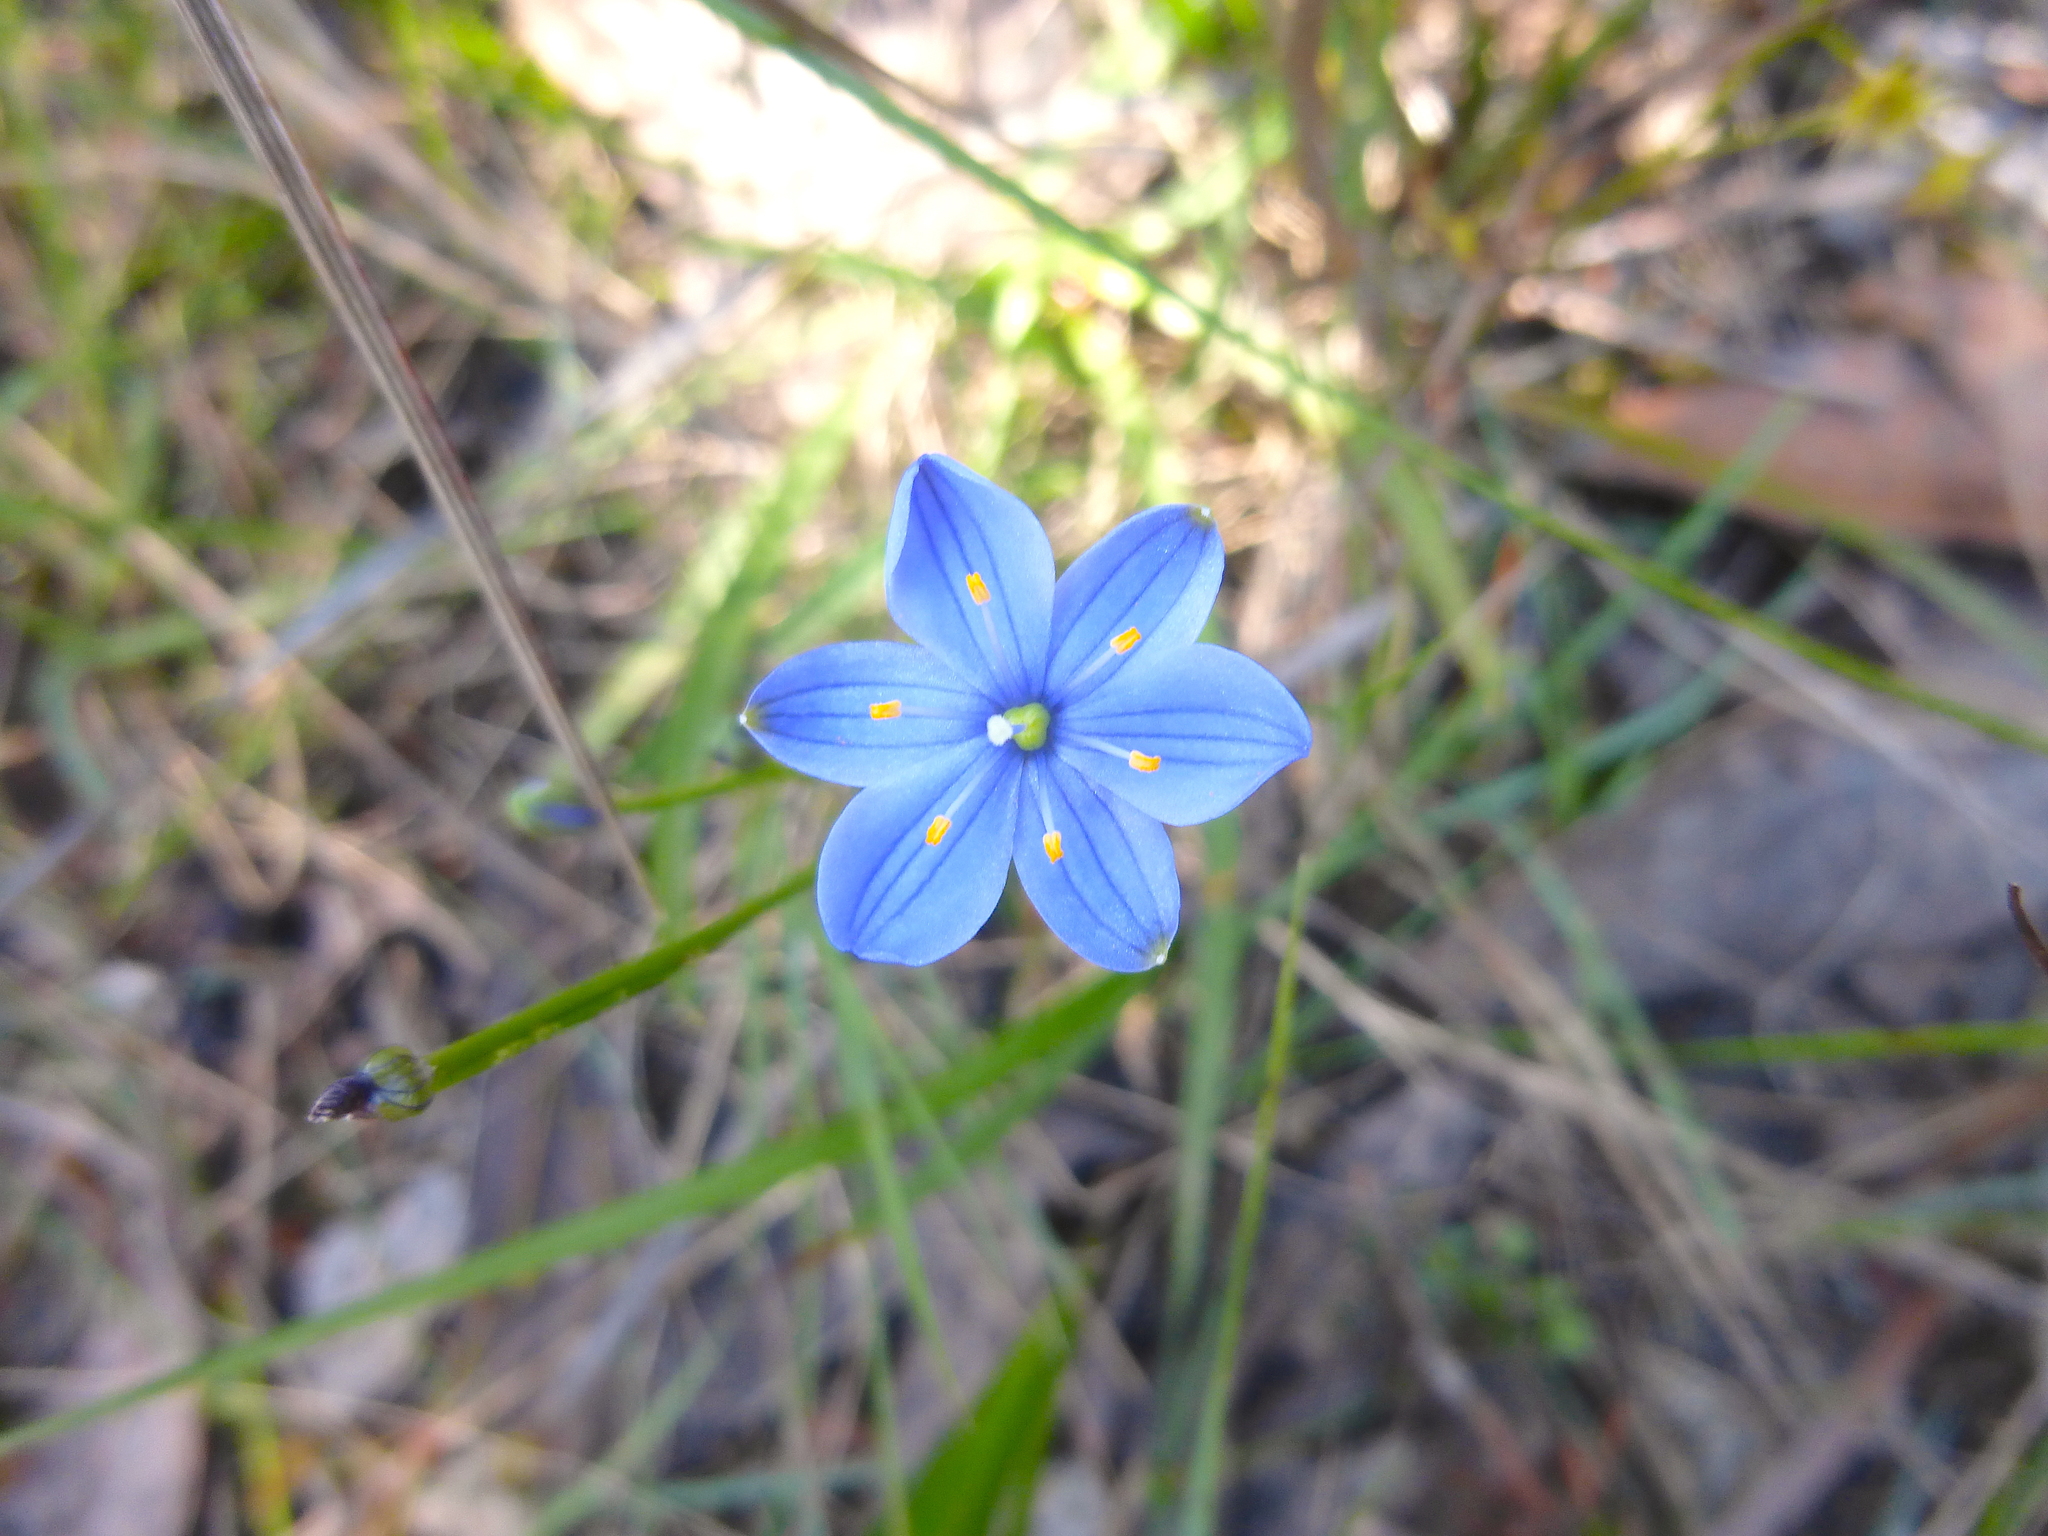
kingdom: Plantae
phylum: Tracheophyta
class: Liliopsida
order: Asparagales
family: Asphodelaceae
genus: Chamaescilla
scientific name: Chamaescilla corymbosa
